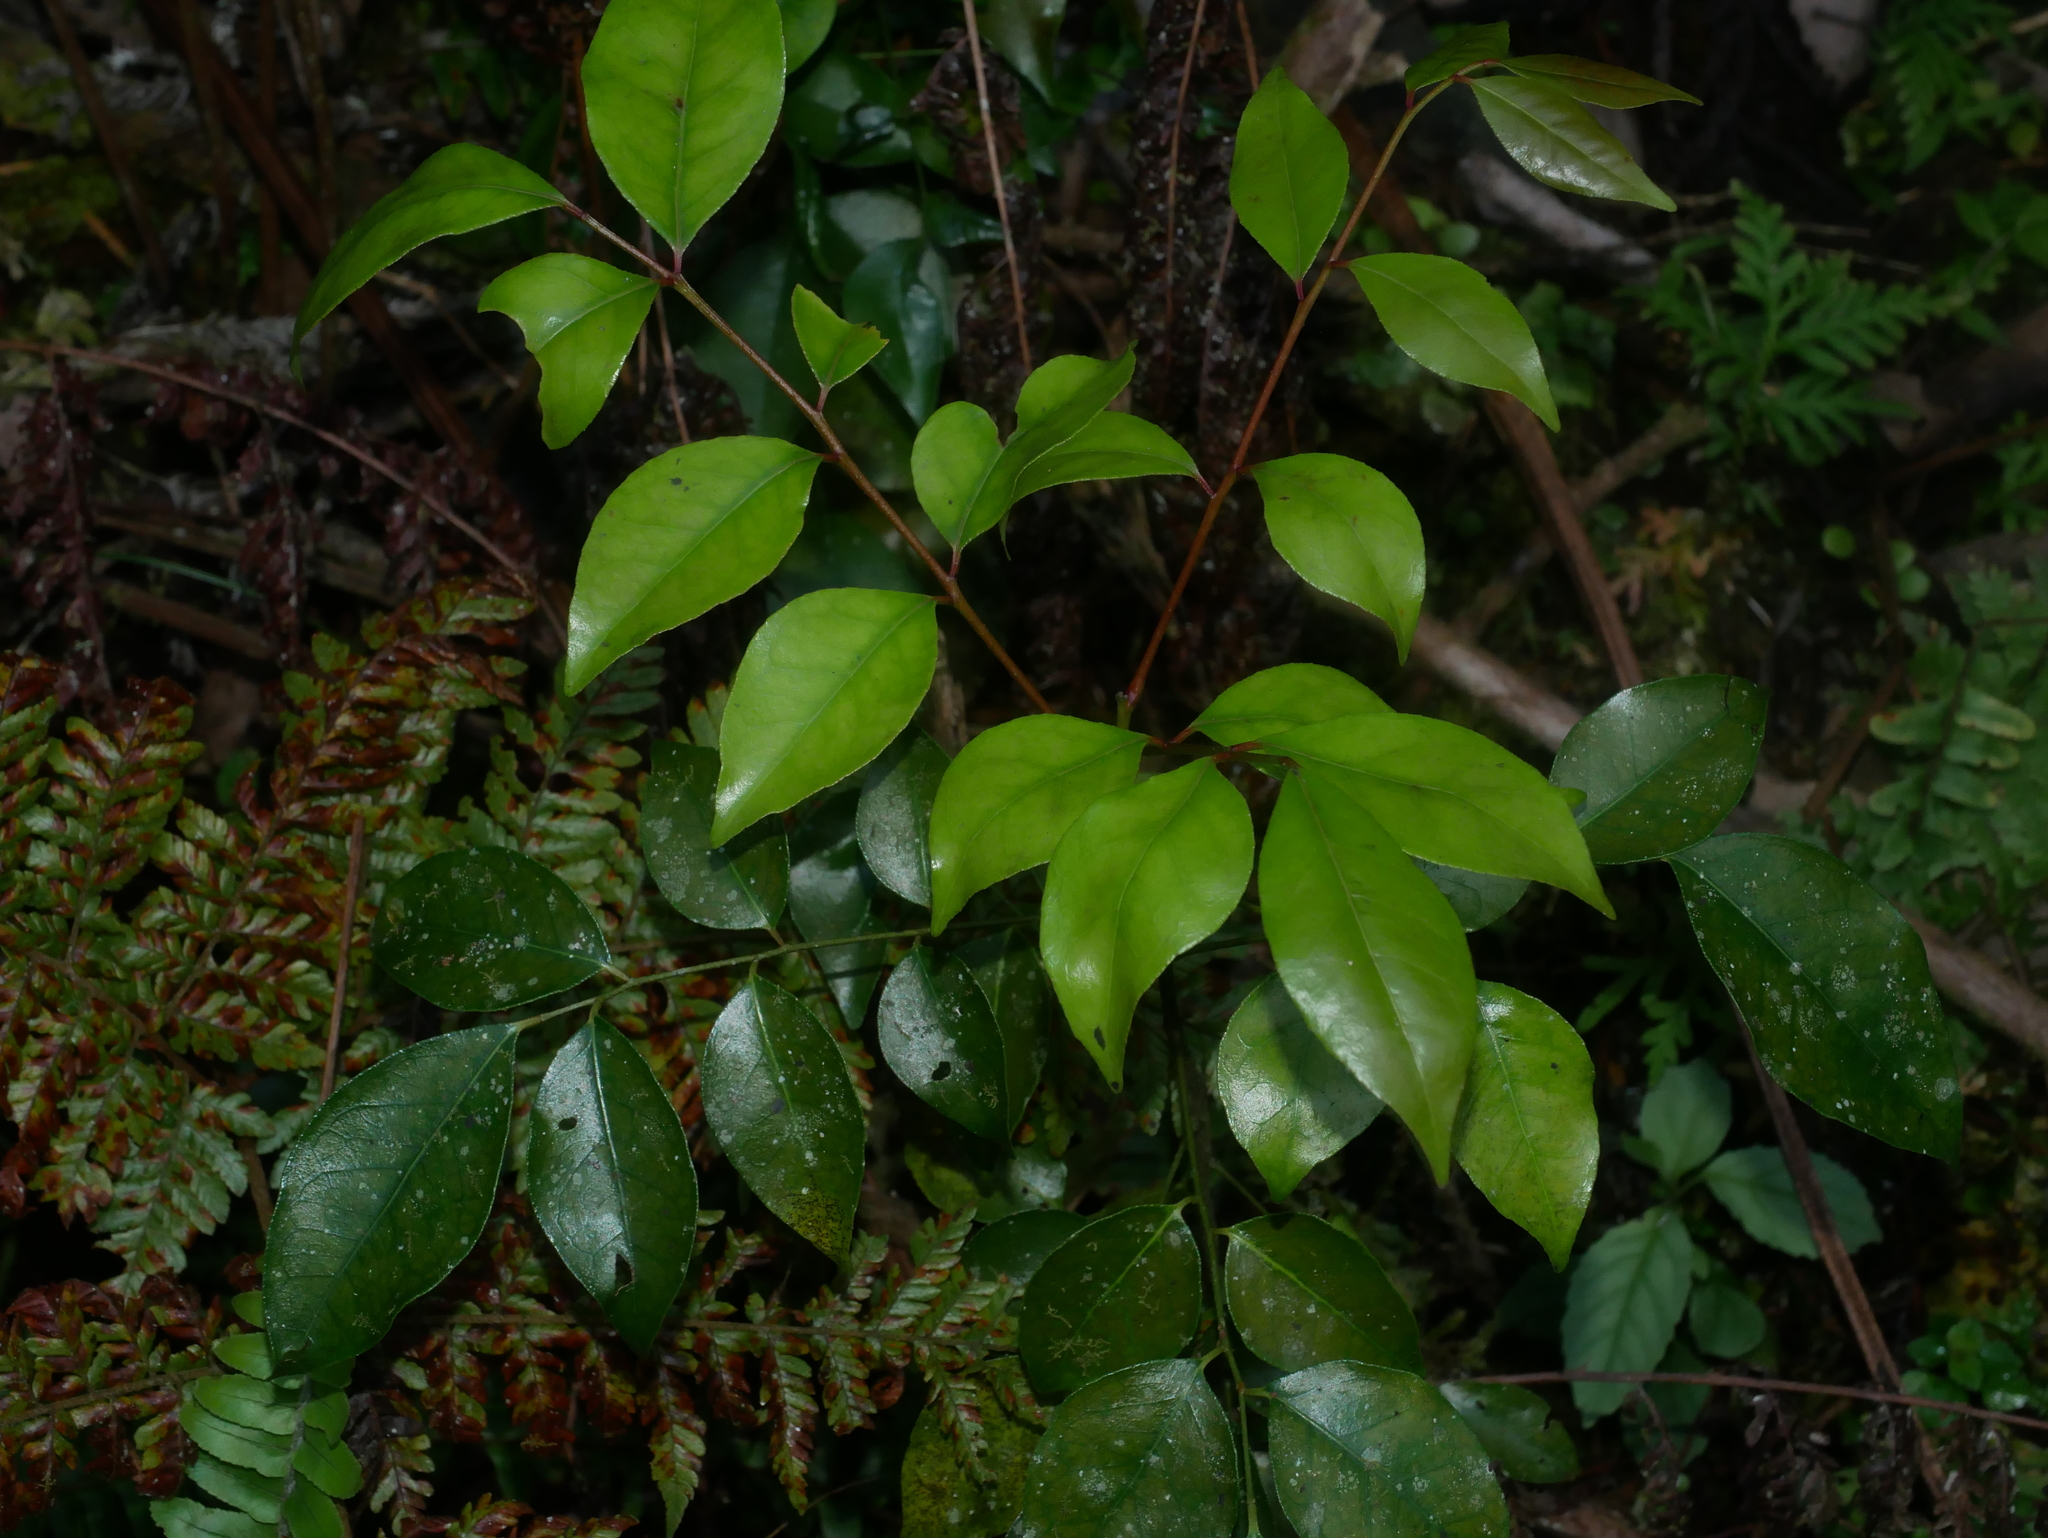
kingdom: Plantae
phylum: Tracheophyta
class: Magnoliopsida
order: Sapindales
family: Rutaceae
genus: Murraya
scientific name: Murraya euchrestifolia
